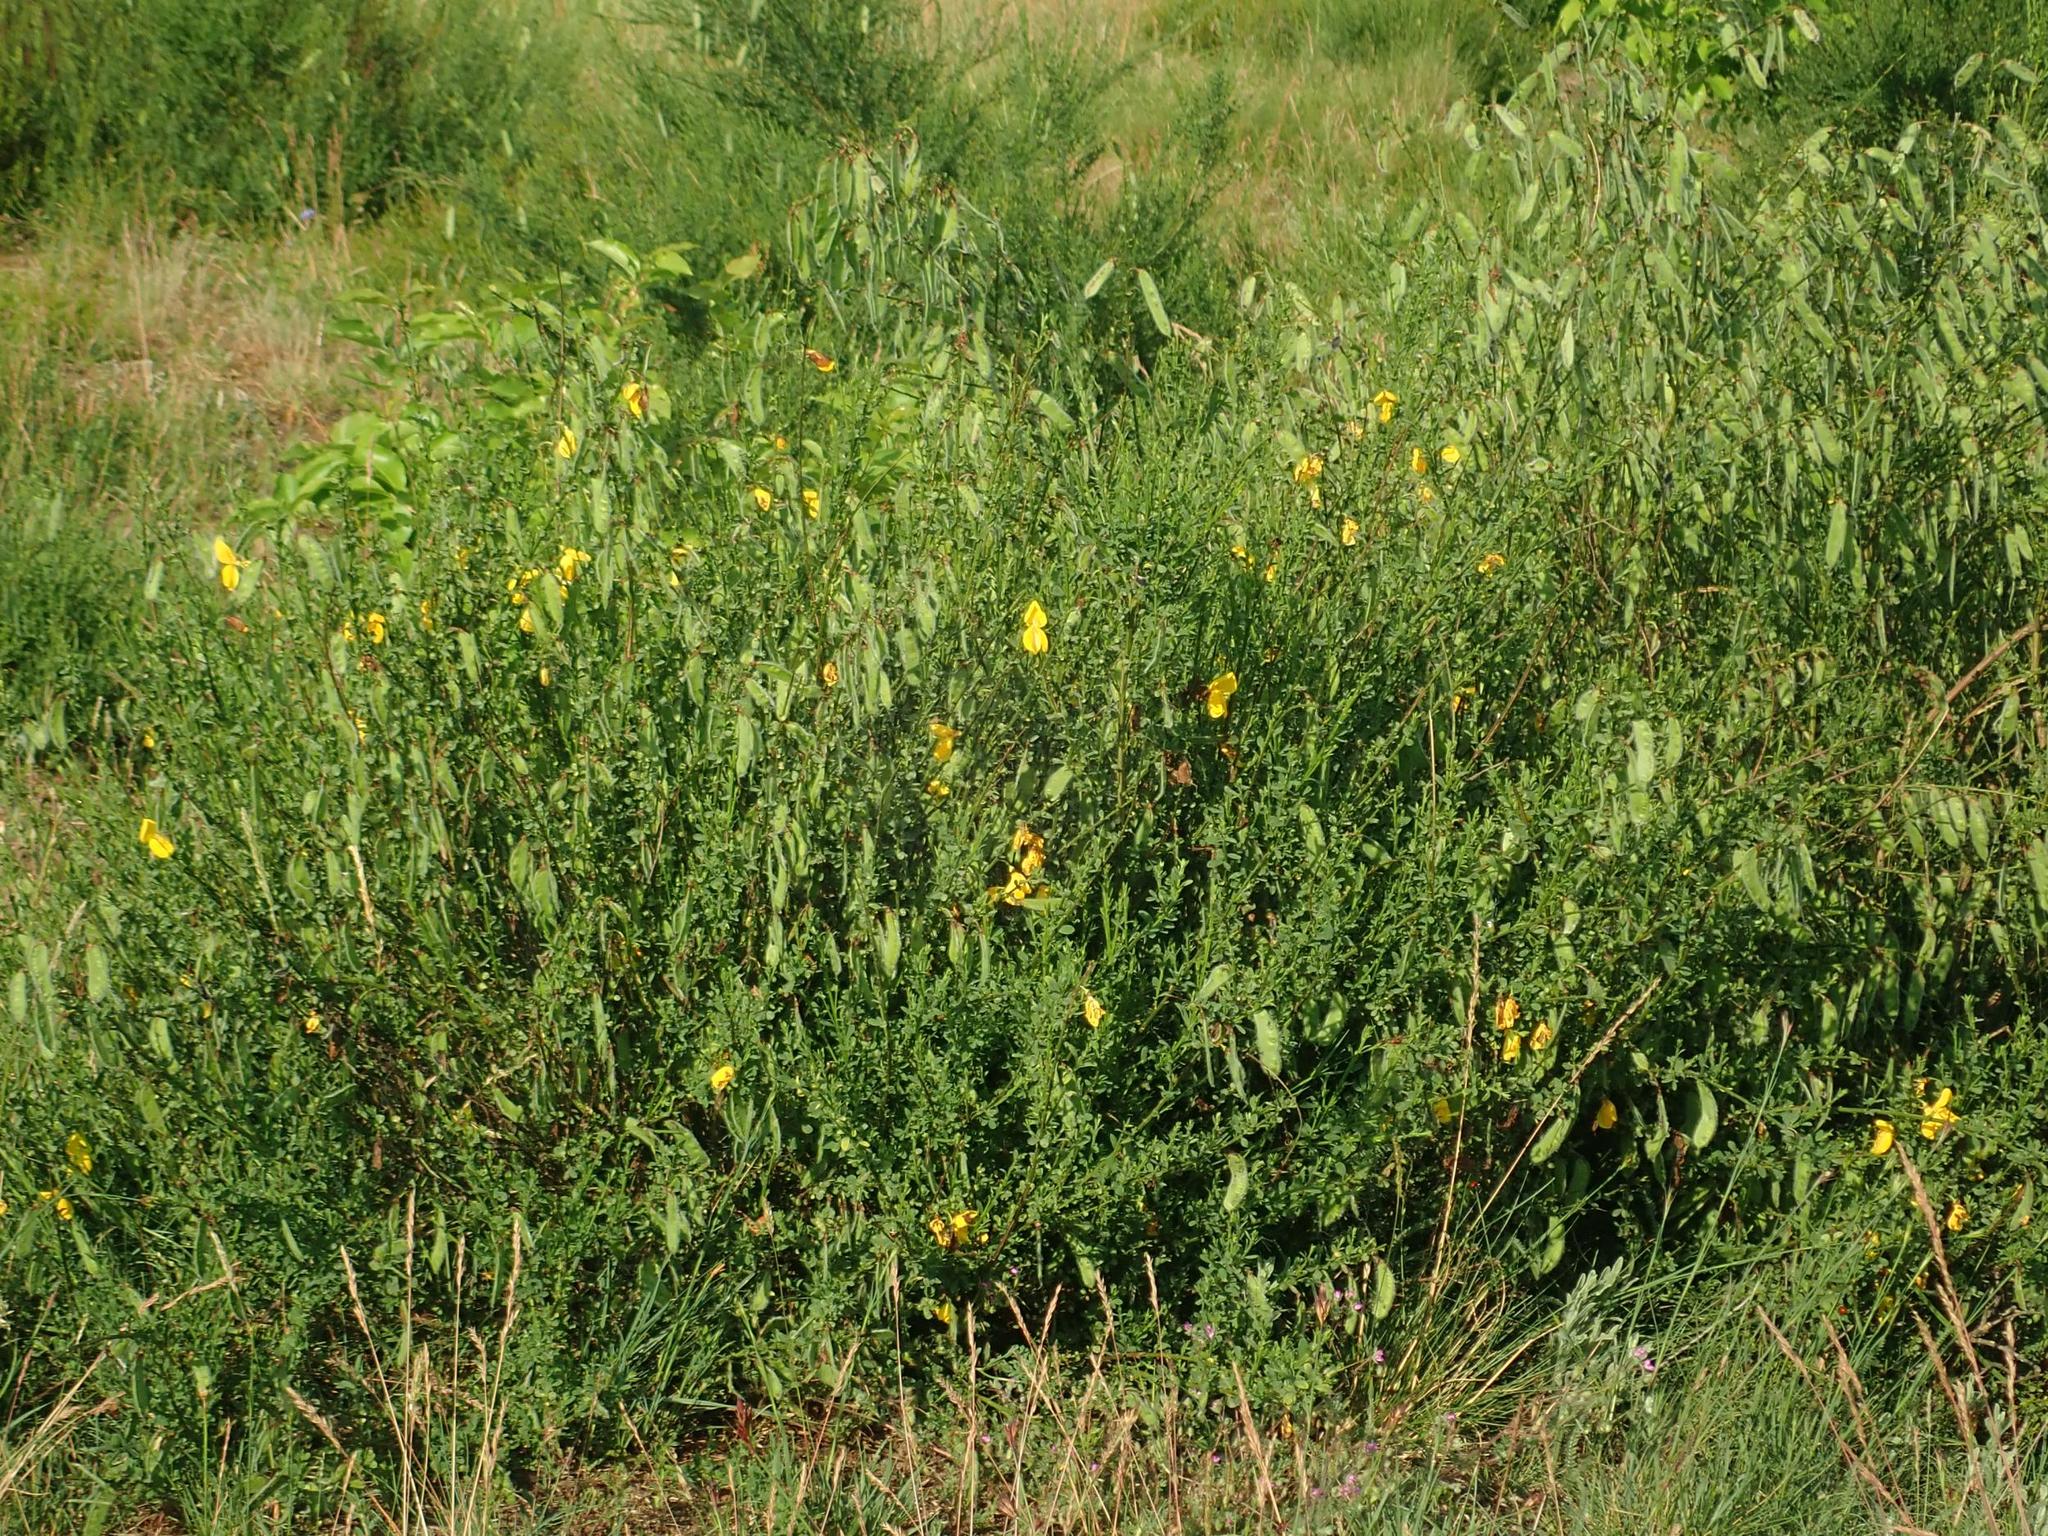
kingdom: Plantae
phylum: Tracheophyta
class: Magnoliopsida
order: Fabales
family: Fabaceae
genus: Cytisus
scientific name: Cytisus scoparius
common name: Scotch broom
